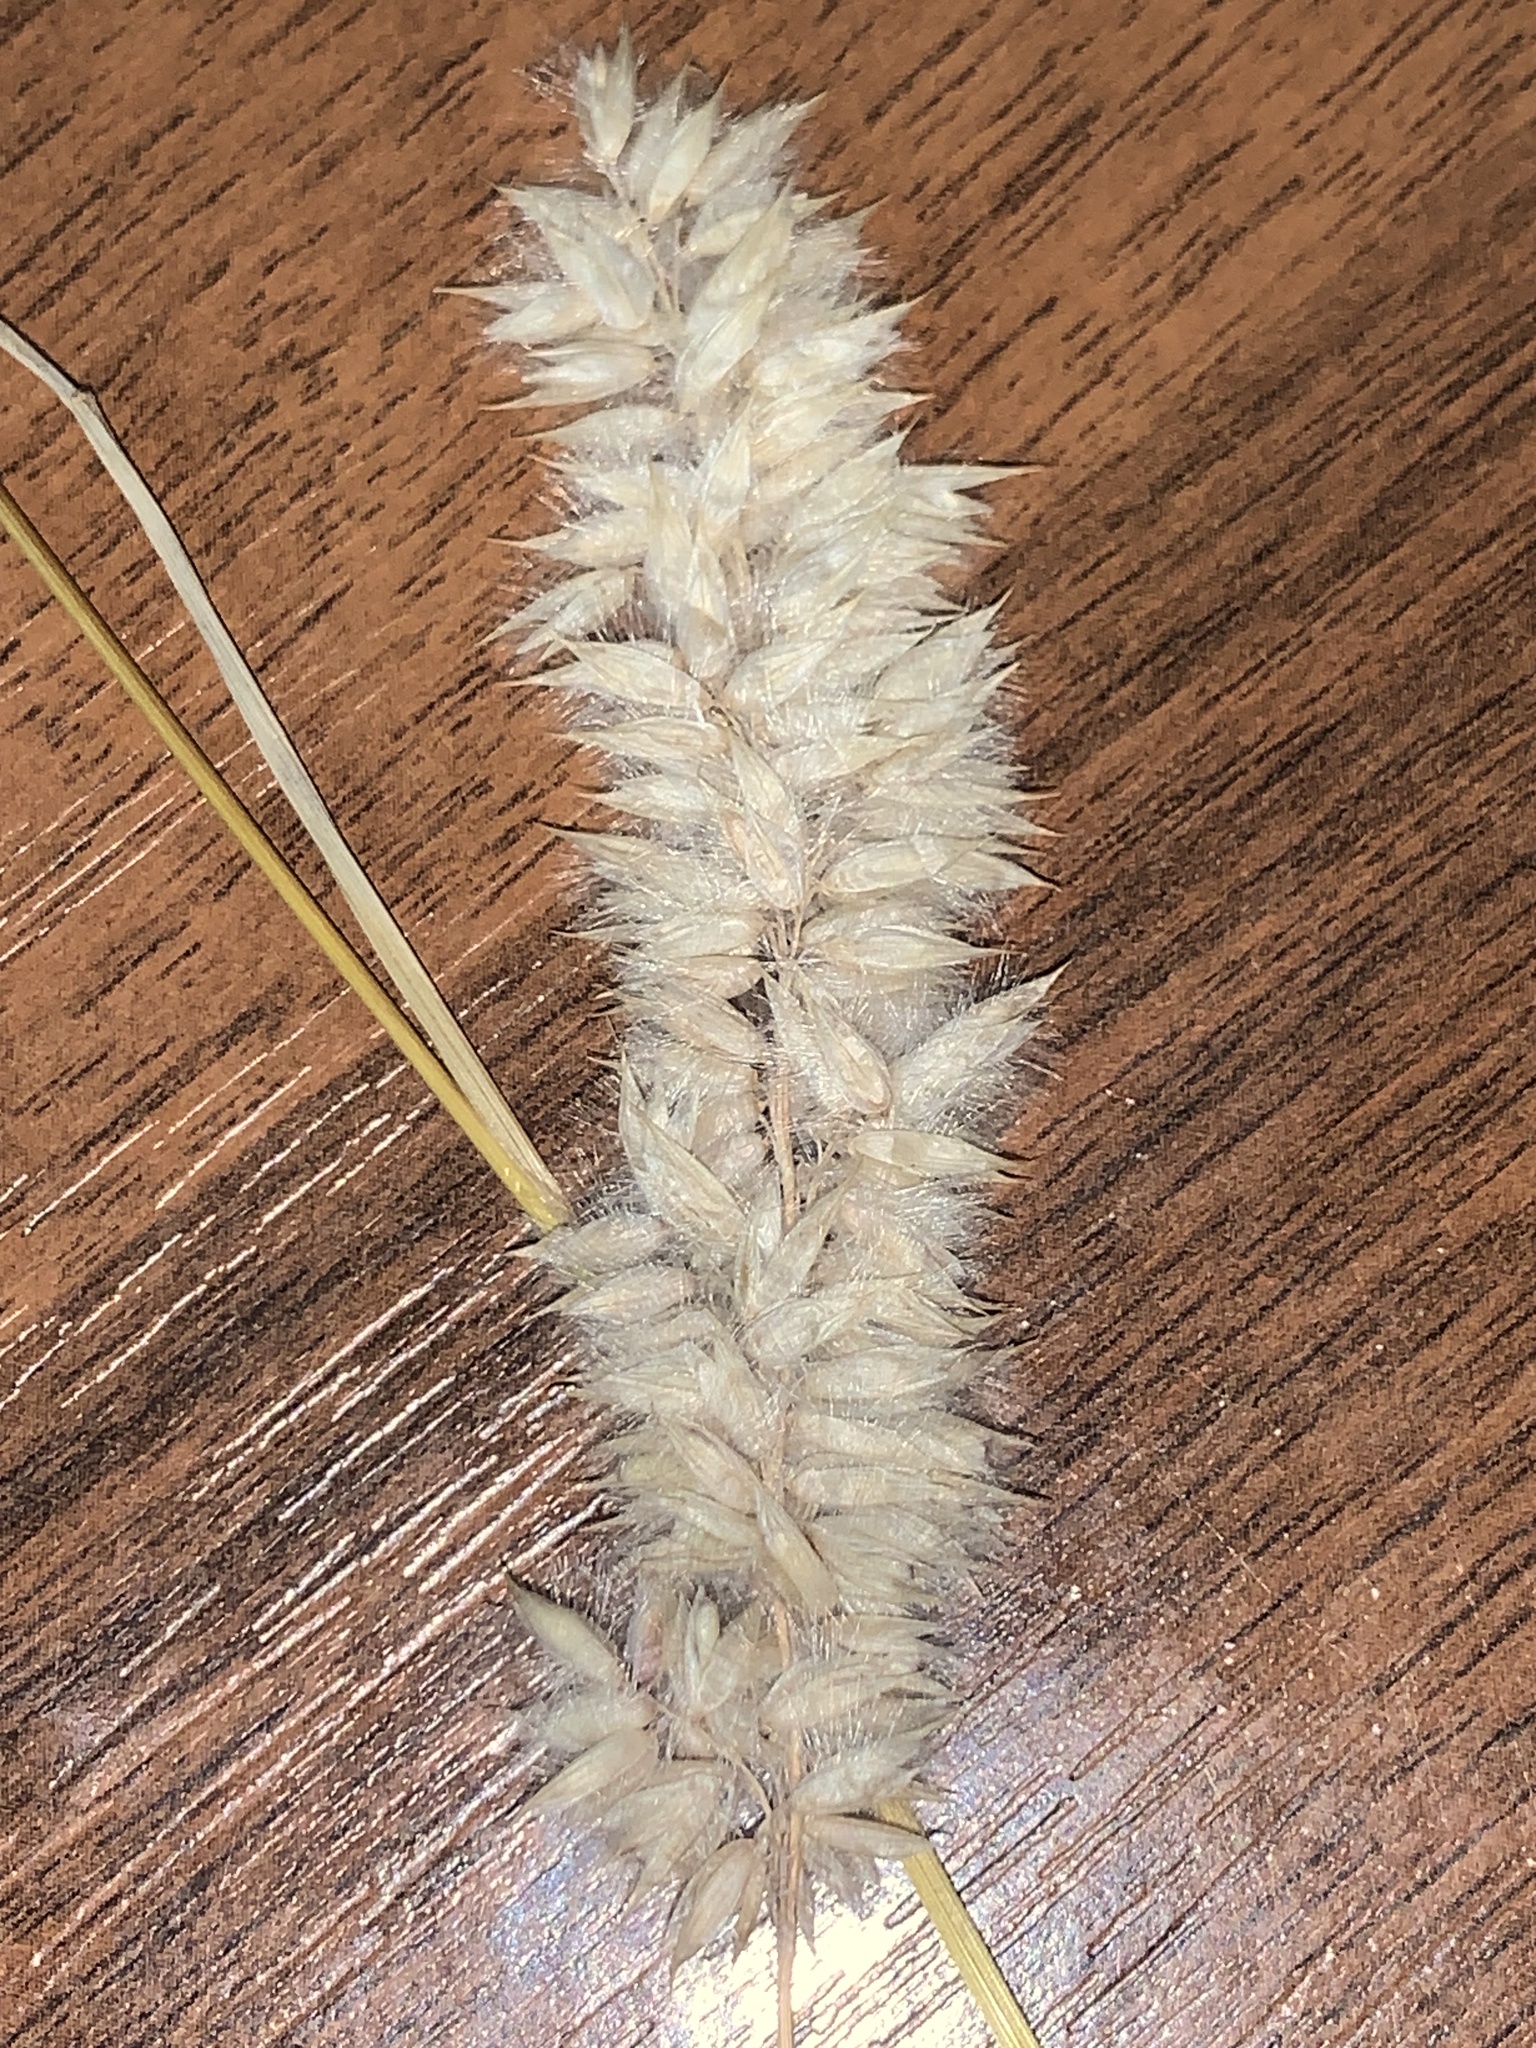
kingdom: Plantae
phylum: Tracheophyta
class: Liliopsida
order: Poales
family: Poaceae
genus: Melica
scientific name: Melica transsilvanica
